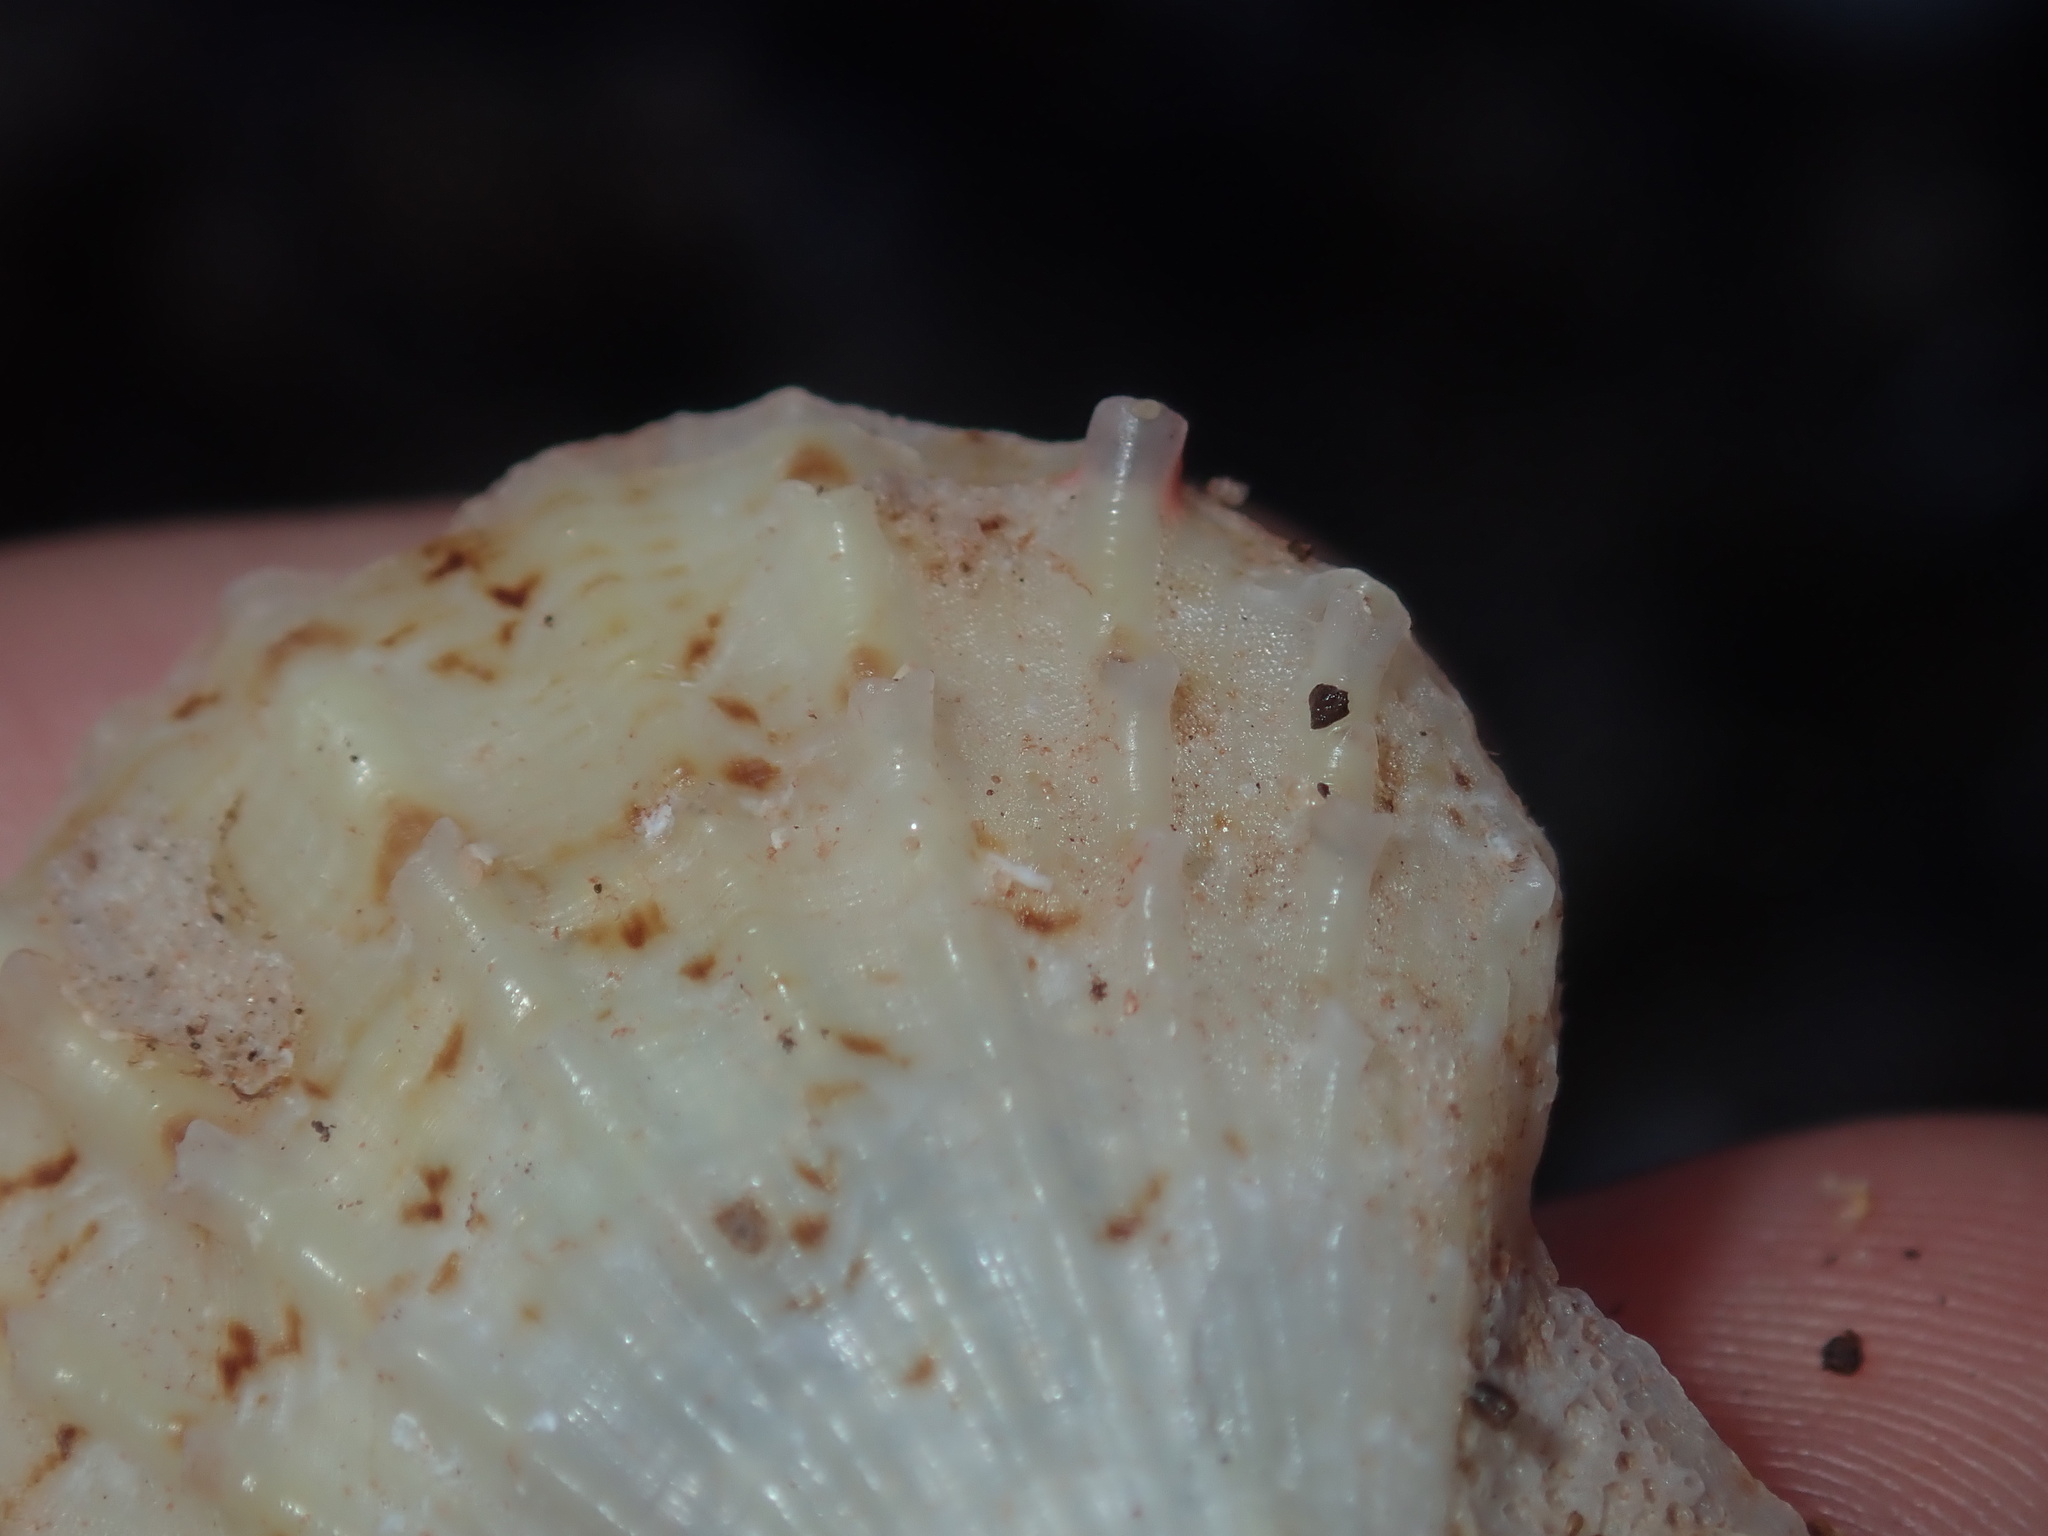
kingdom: Animalia
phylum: Mollusca
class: Bivalvia
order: Pectinida
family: Pectinidae
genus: Scaeochlamys
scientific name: Scaeochlamys livida
